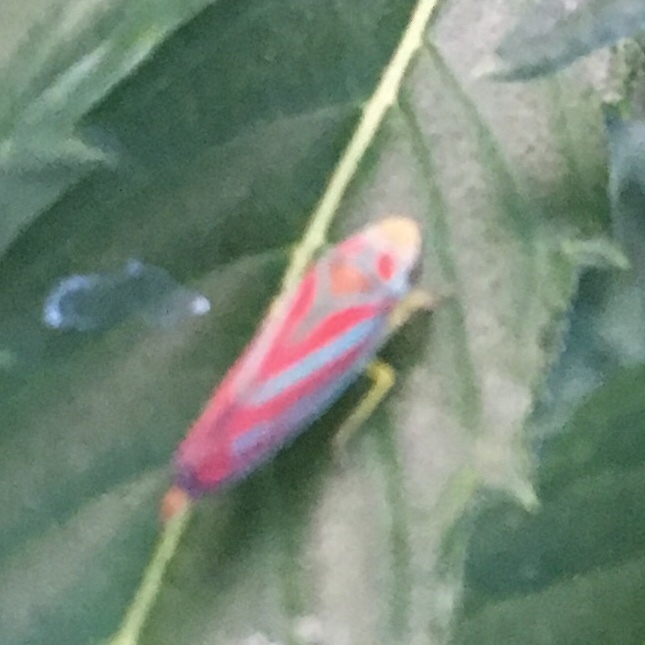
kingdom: Animalia
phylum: Arthropoda
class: Insecta
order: Hemiptera
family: Cicadellidae
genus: Graphocephala
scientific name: Graphocephala coccinea
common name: Candy-striped leafhopper
